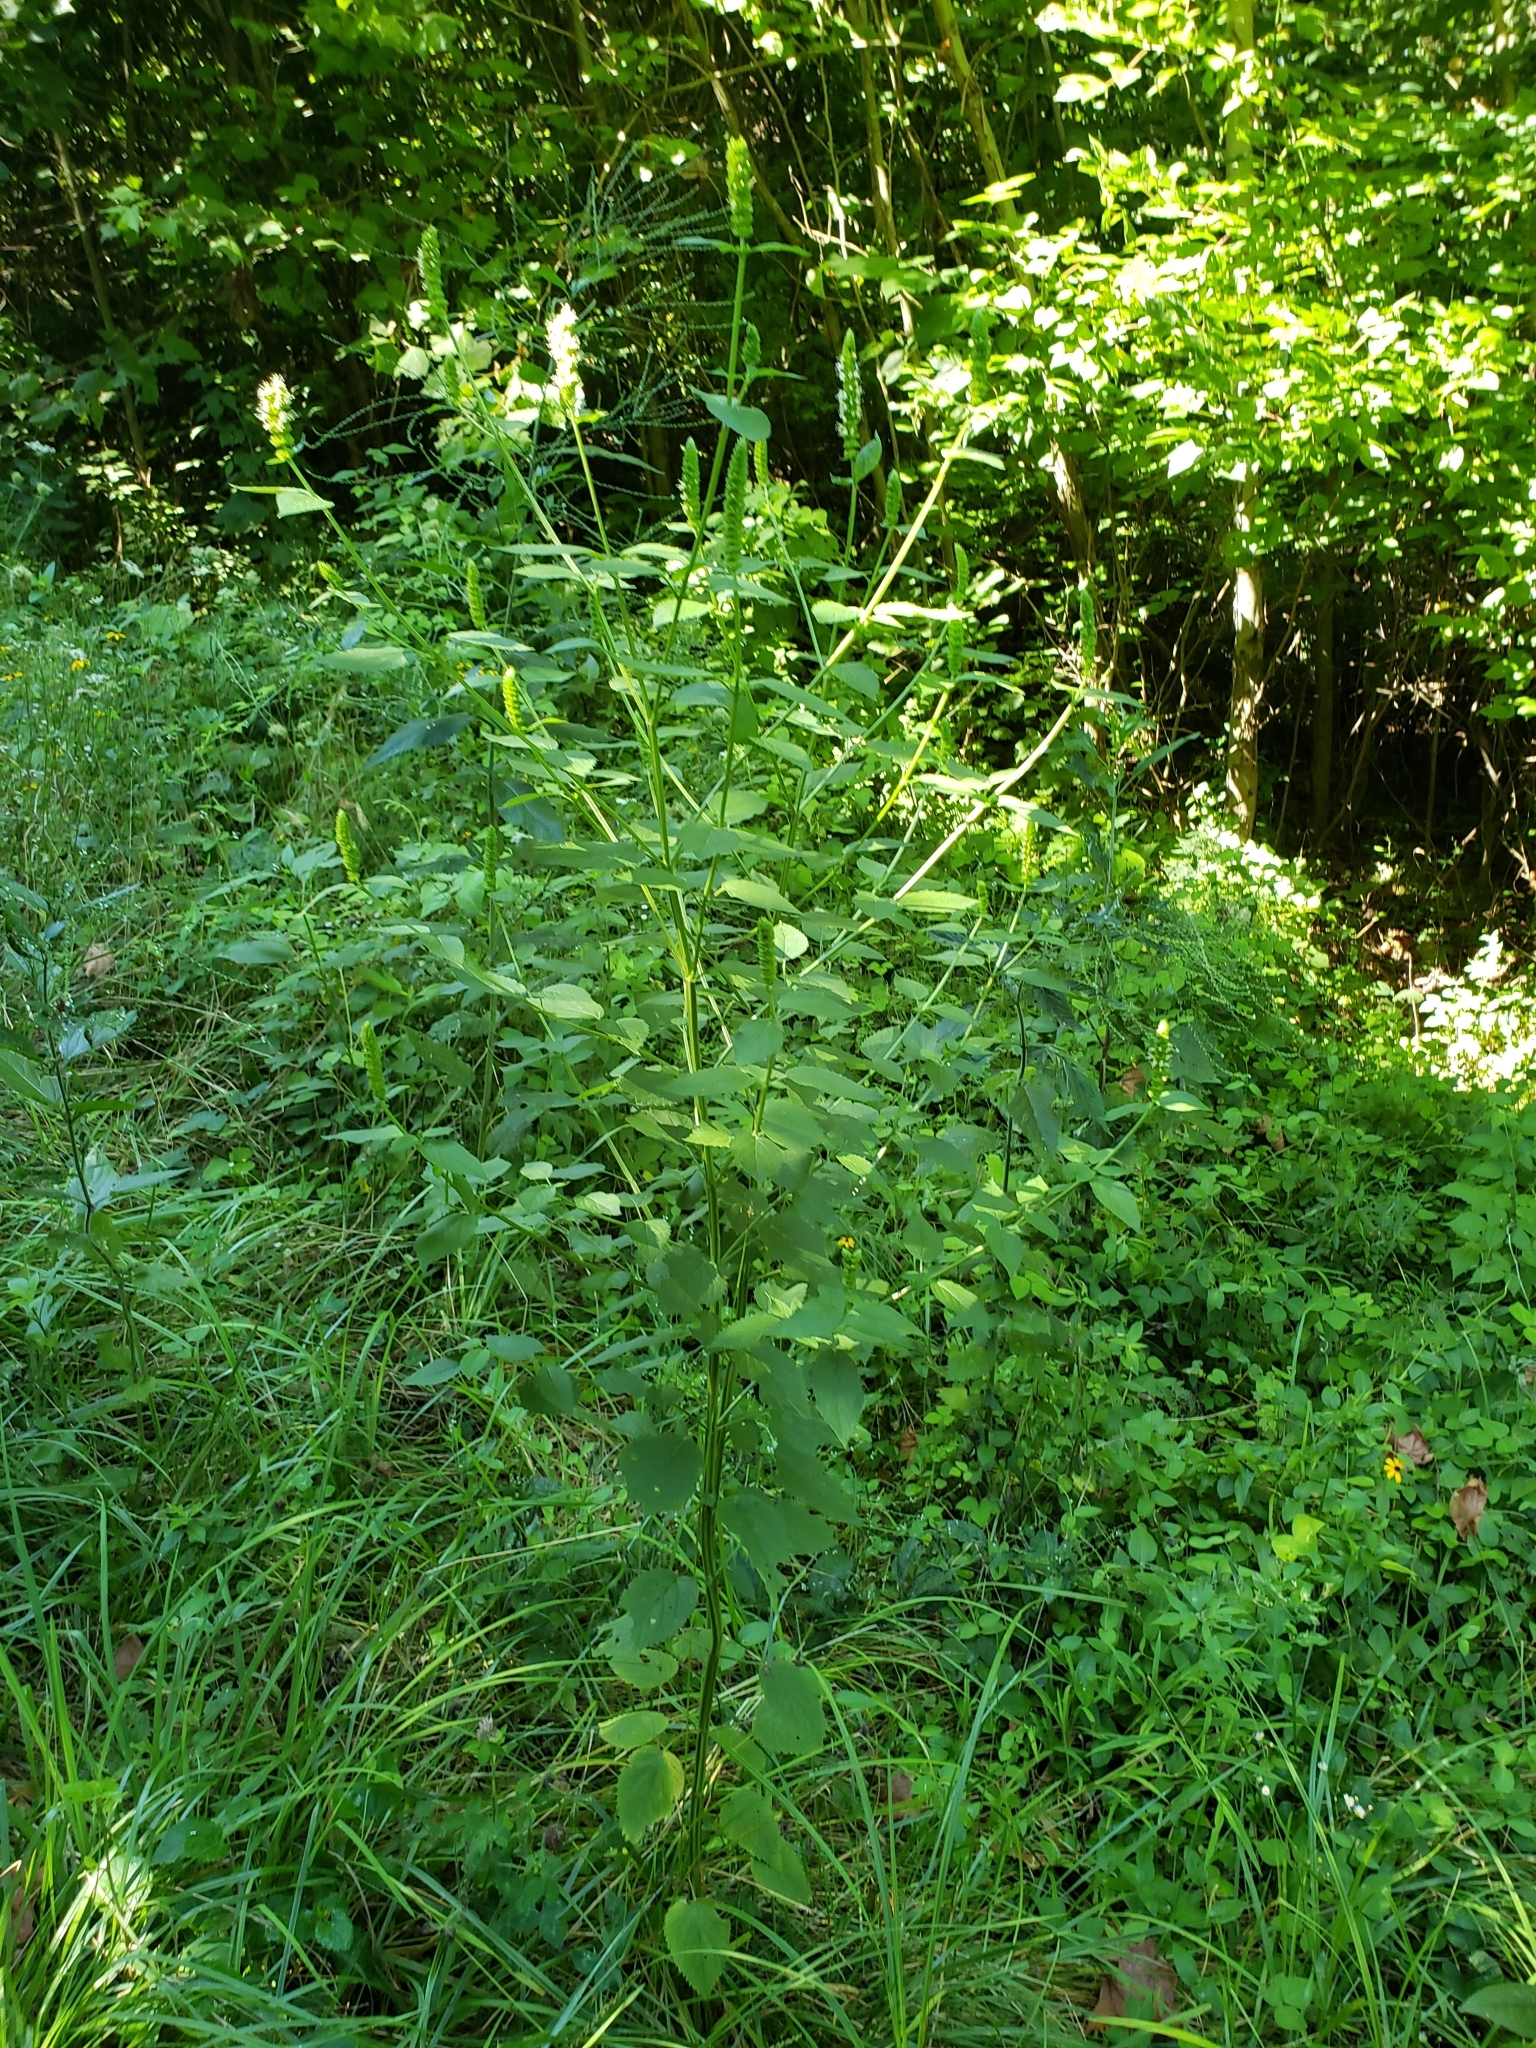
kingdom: Plantae
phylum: Tracheophyta
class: Magnoliopsida
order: Lamiales
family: Lamiaceae
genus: Agastache
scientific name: Agastache nepetoides
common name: Catnip giant hyssop
